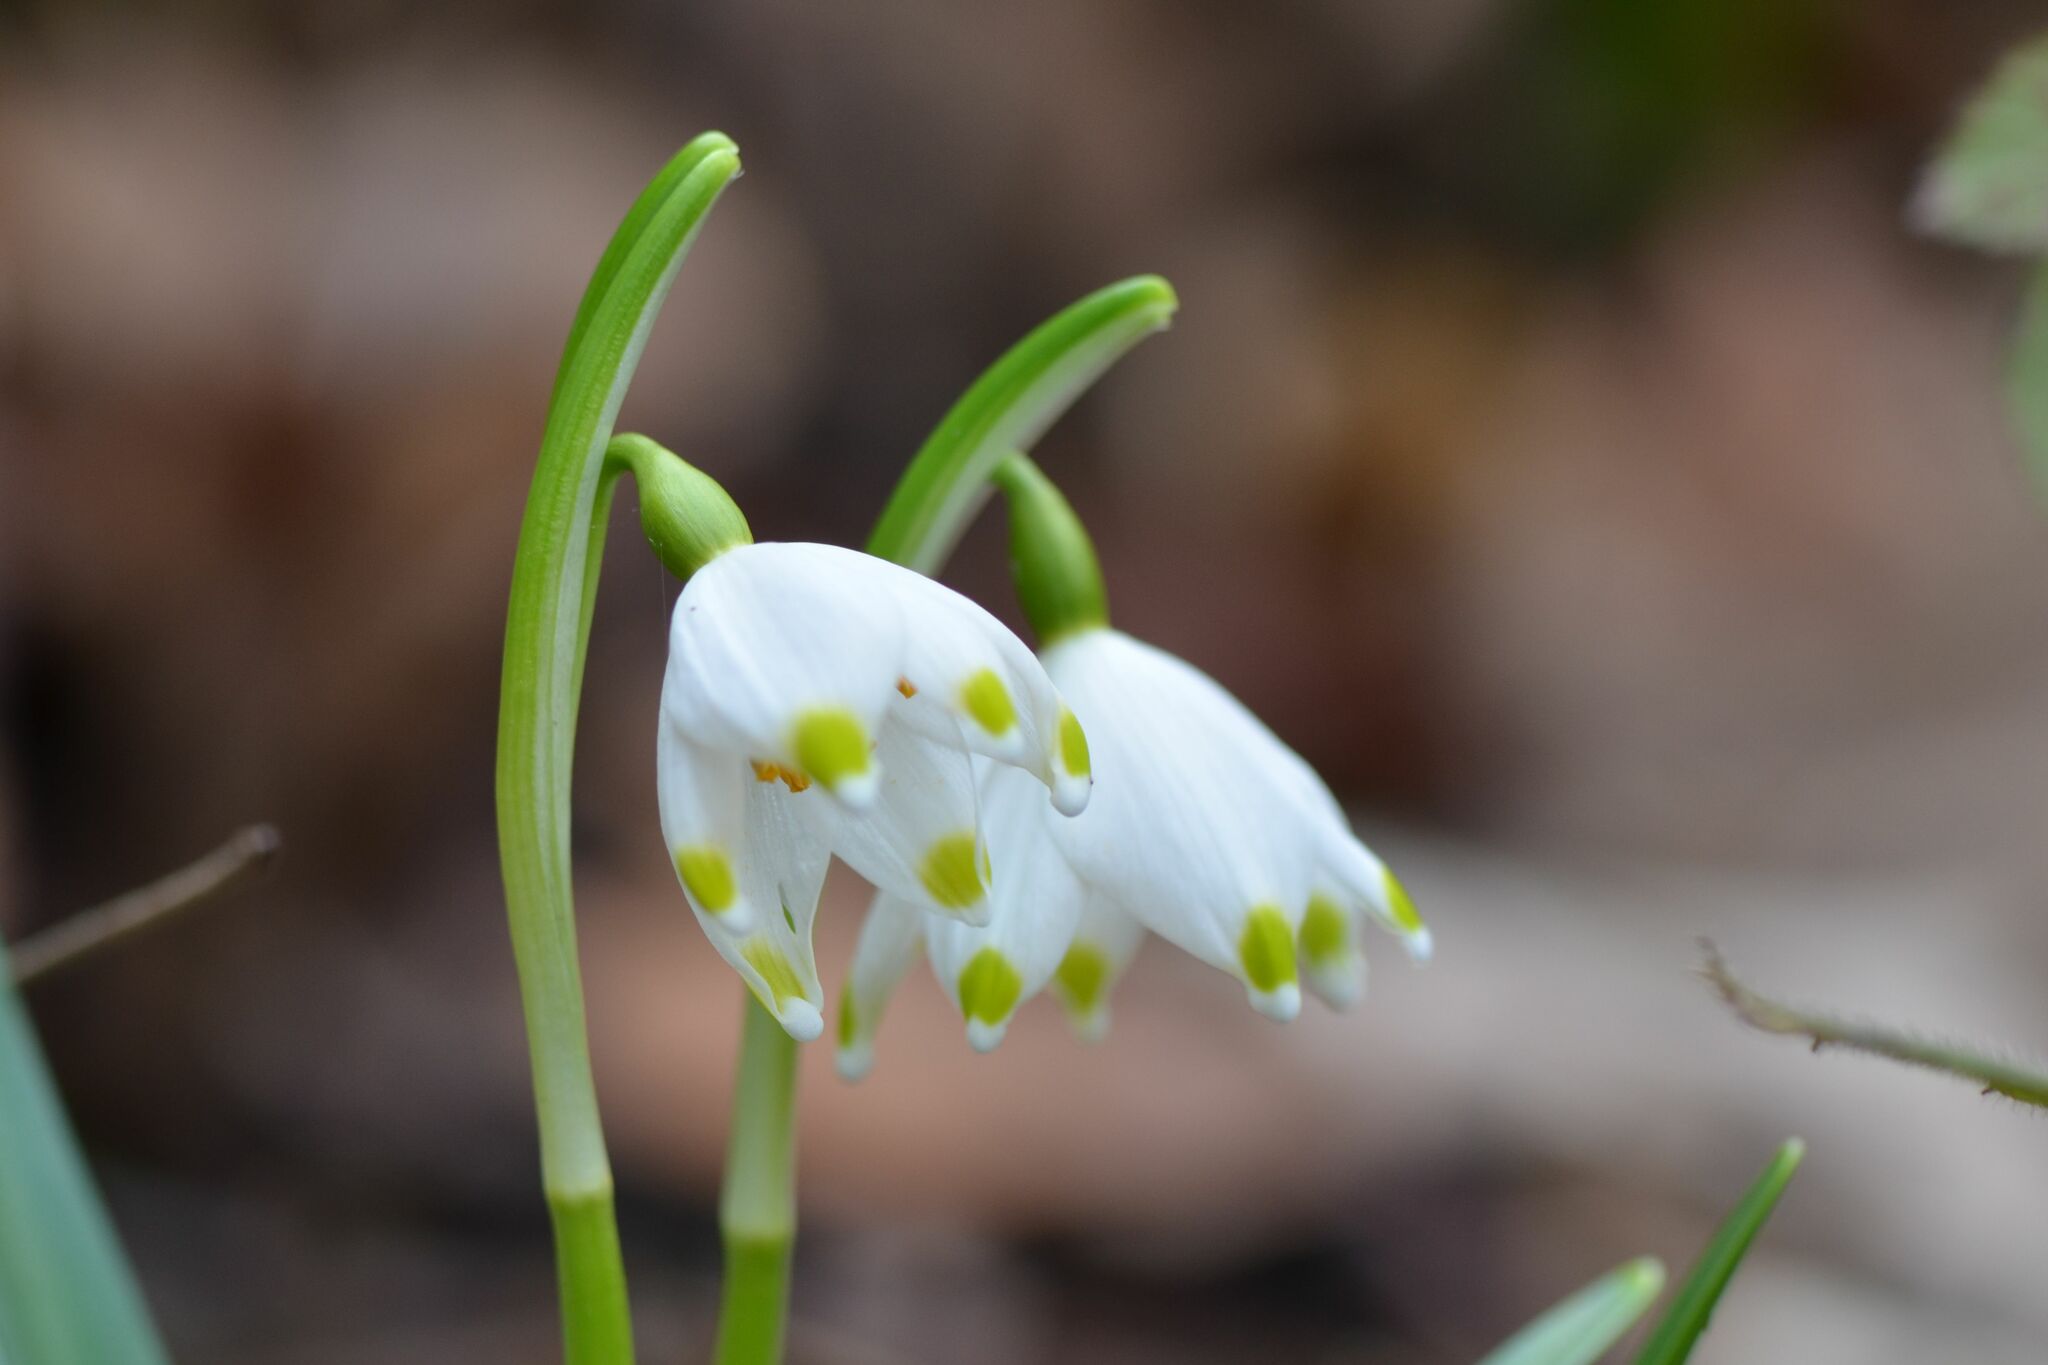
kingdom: Plantae
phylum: Tracheophyta
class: Liliopsida
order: Asparagales
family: Amaryllidaceae
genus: Leucojum
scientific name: Leucojum vernum
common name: Spring snowflake
